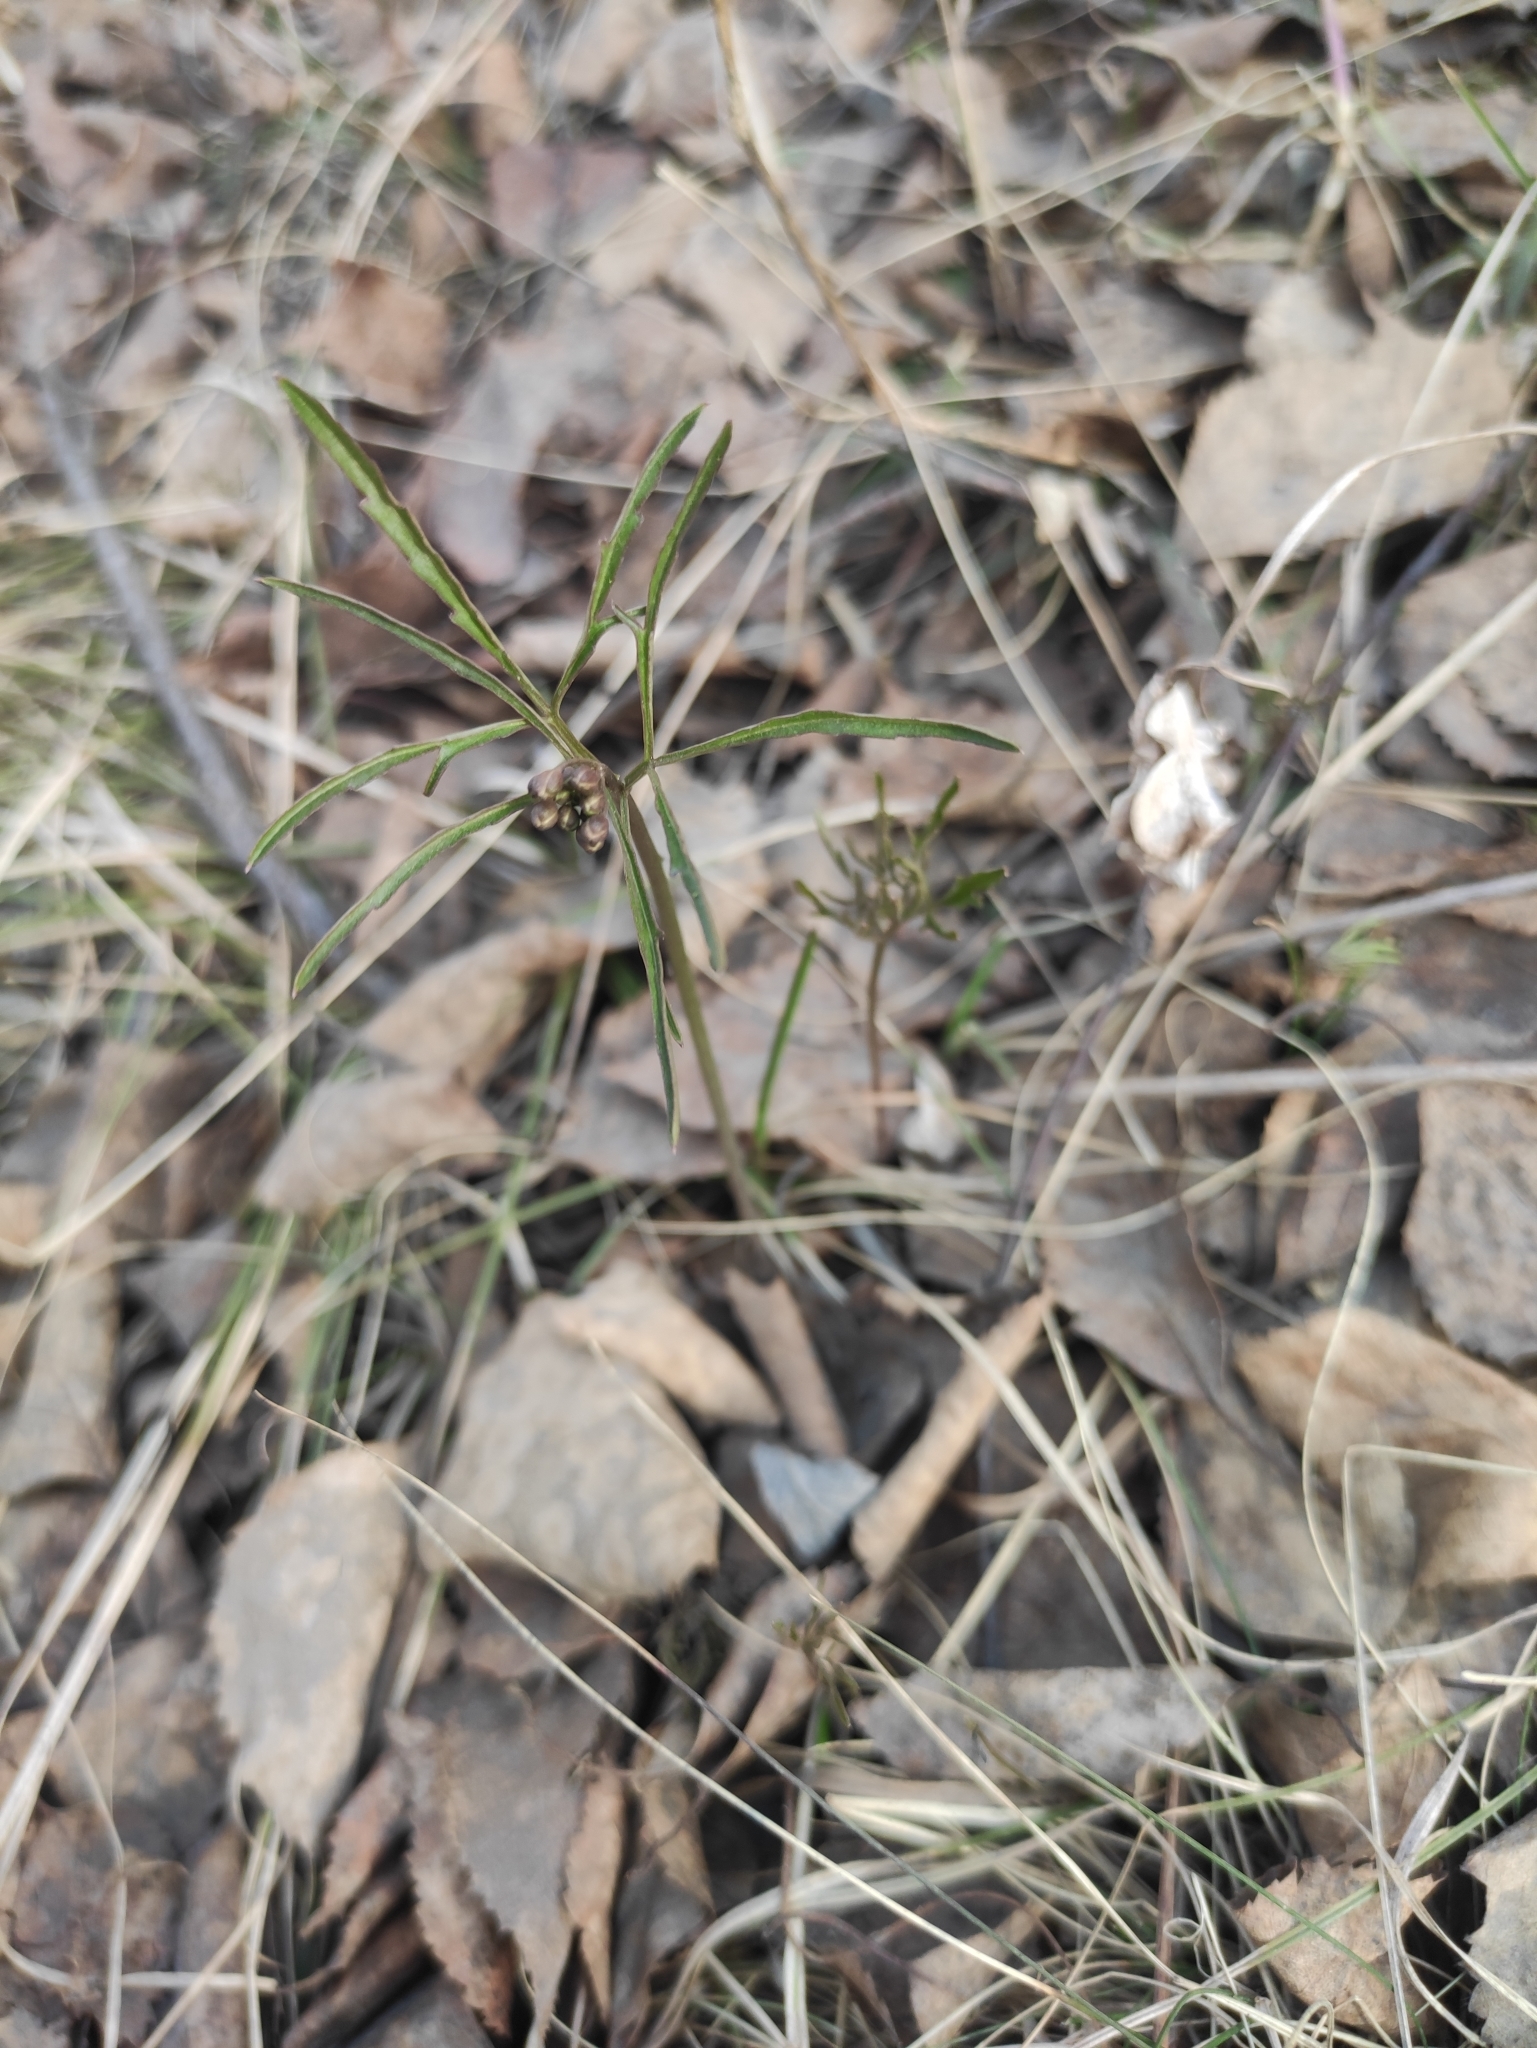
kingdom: Plantae
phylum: Tracheophyta
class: Magnoliopsida
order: Brassicales
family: Brassicaceae
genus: Cardamine
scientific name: Cardamine trifida
